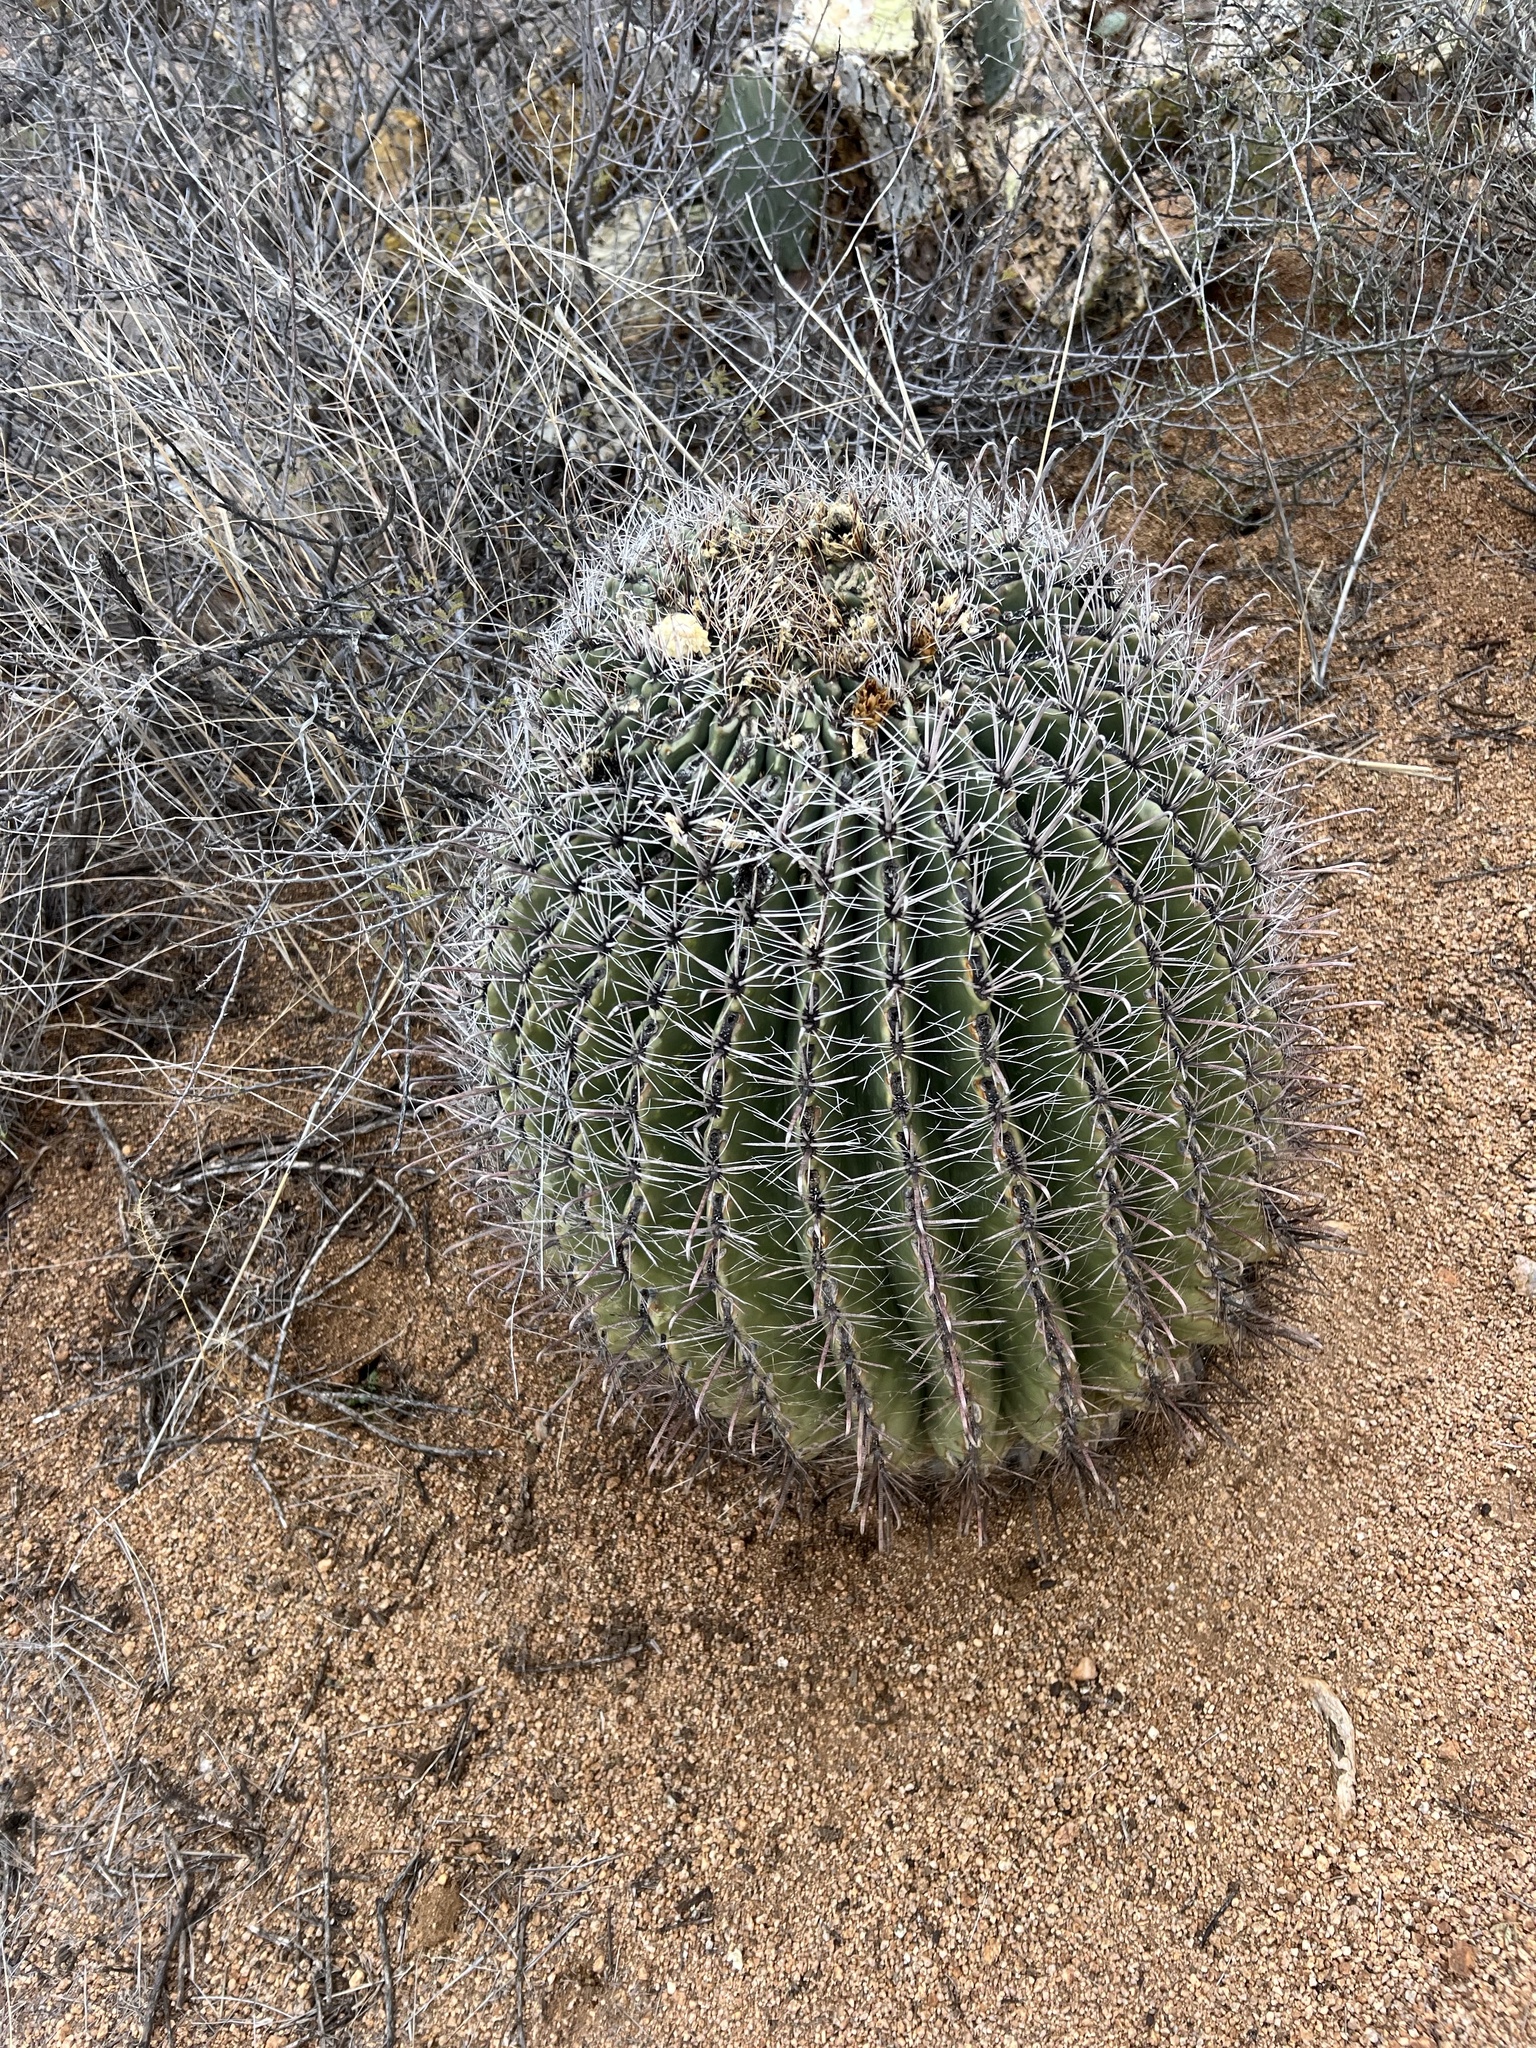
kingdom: Plantae
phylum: Tracheophyta
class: Magnoliopsida
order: Caryophyllales
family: Cactaceae
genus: Ferocactus
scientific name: Ferocactus wislizeni
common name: Candy barrel cactus
